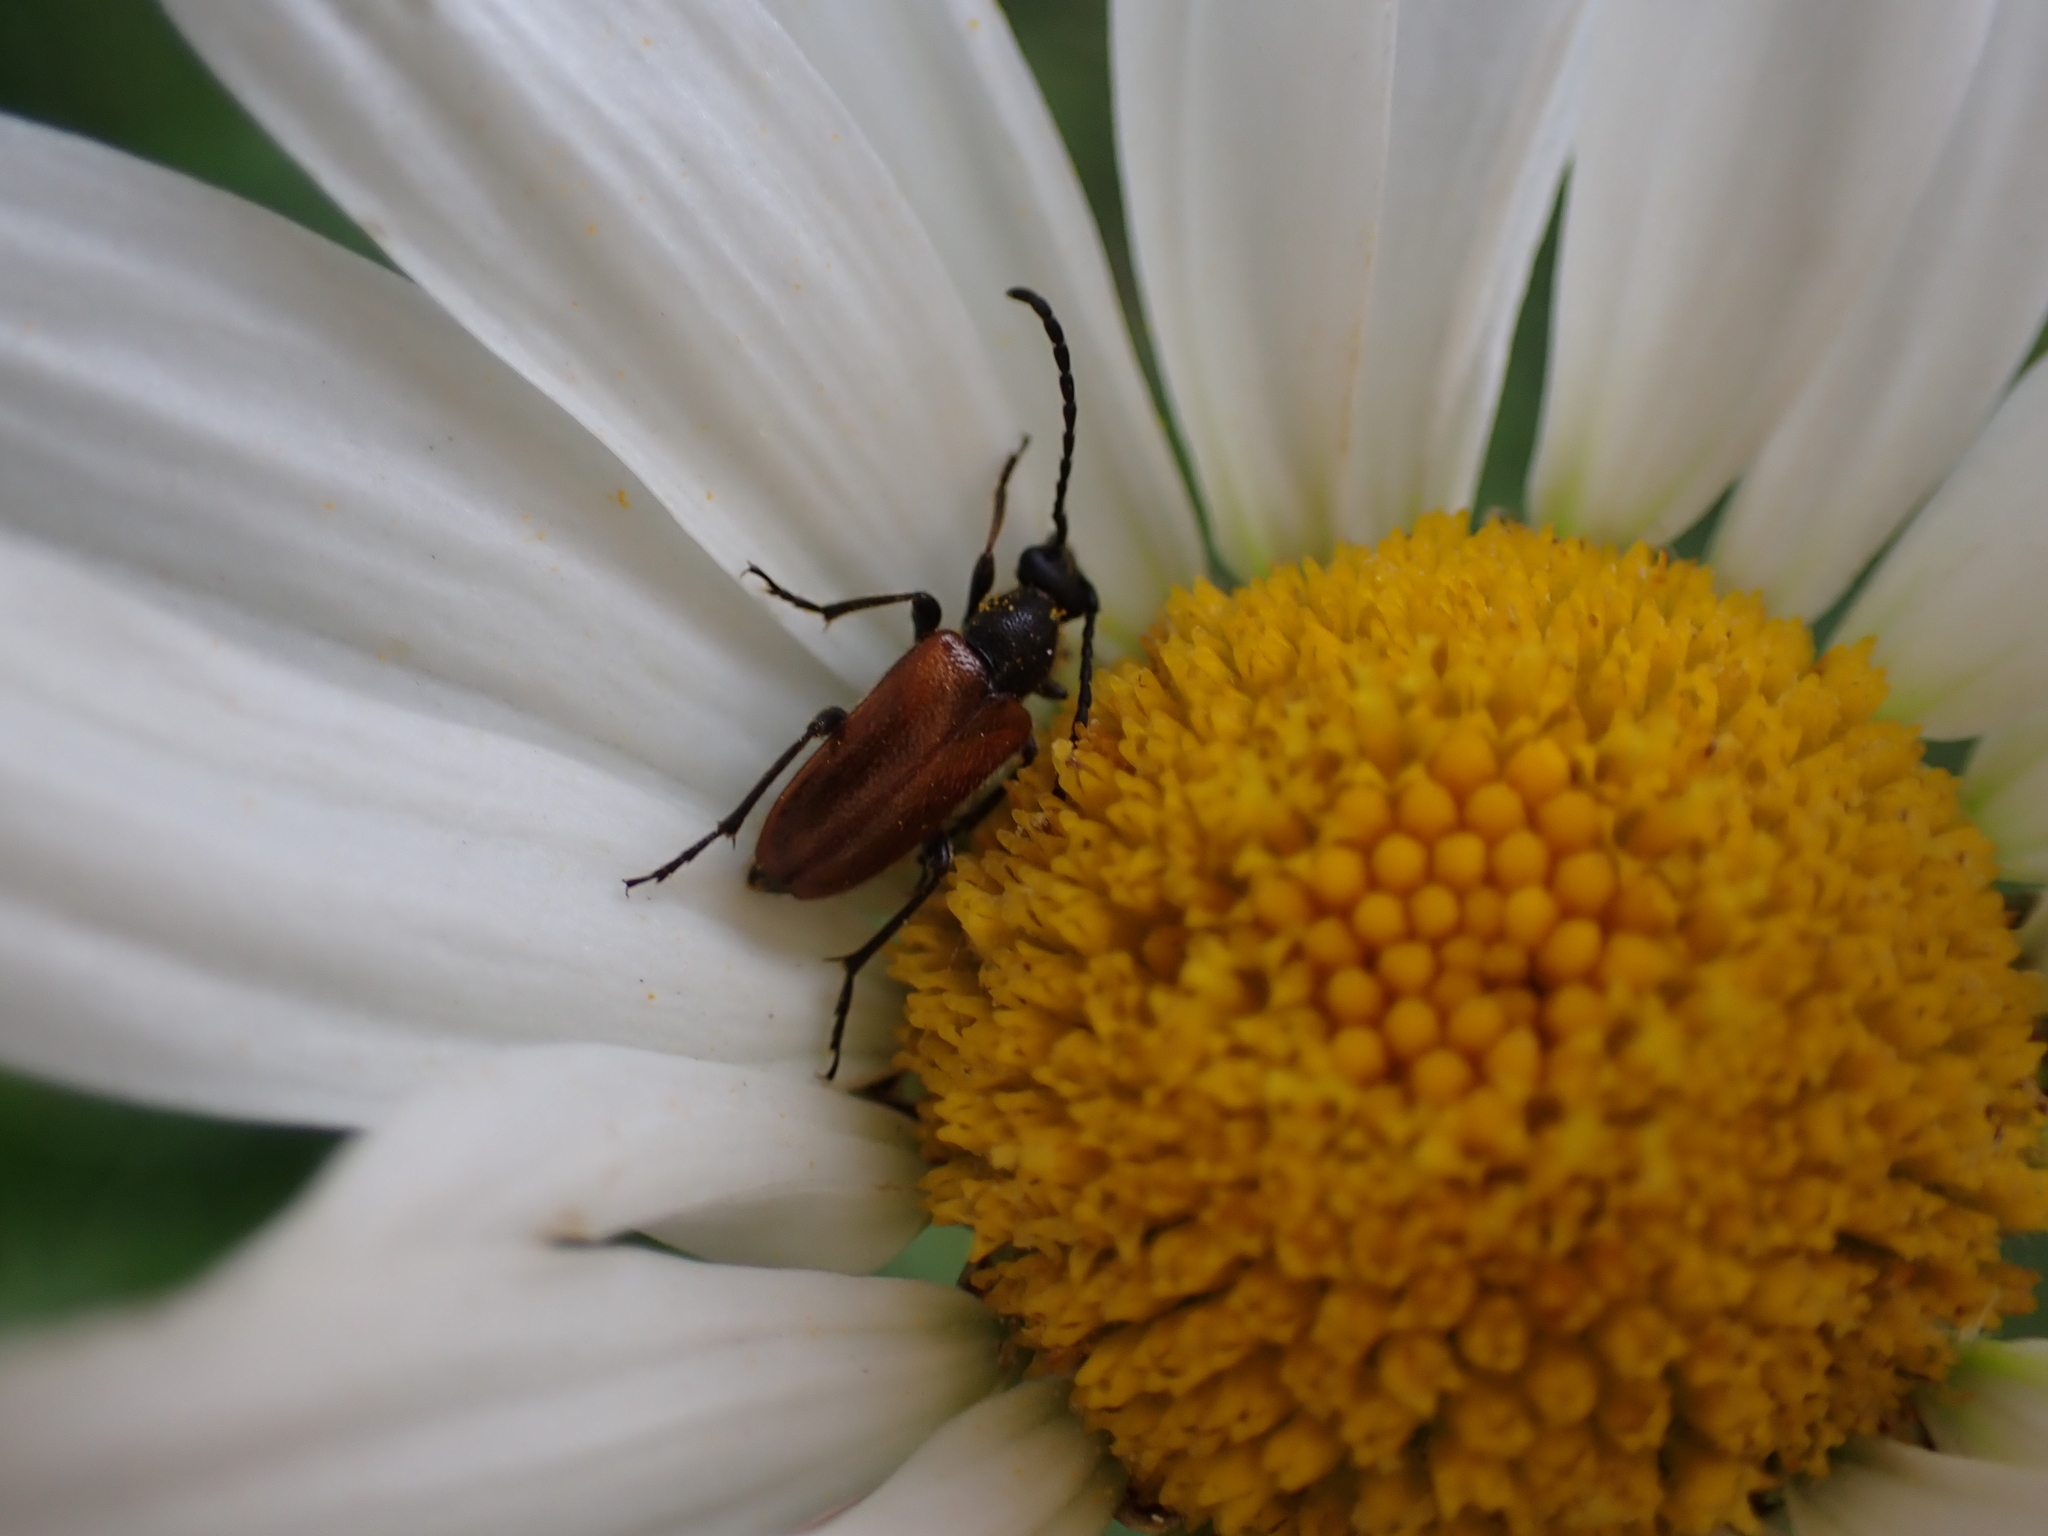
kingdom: Animalia
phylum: Arthropoda
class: Insecta
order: Coleoptera
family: Cerambycidae
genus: Pseudovadonia
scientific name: Pseudovadonia livida
